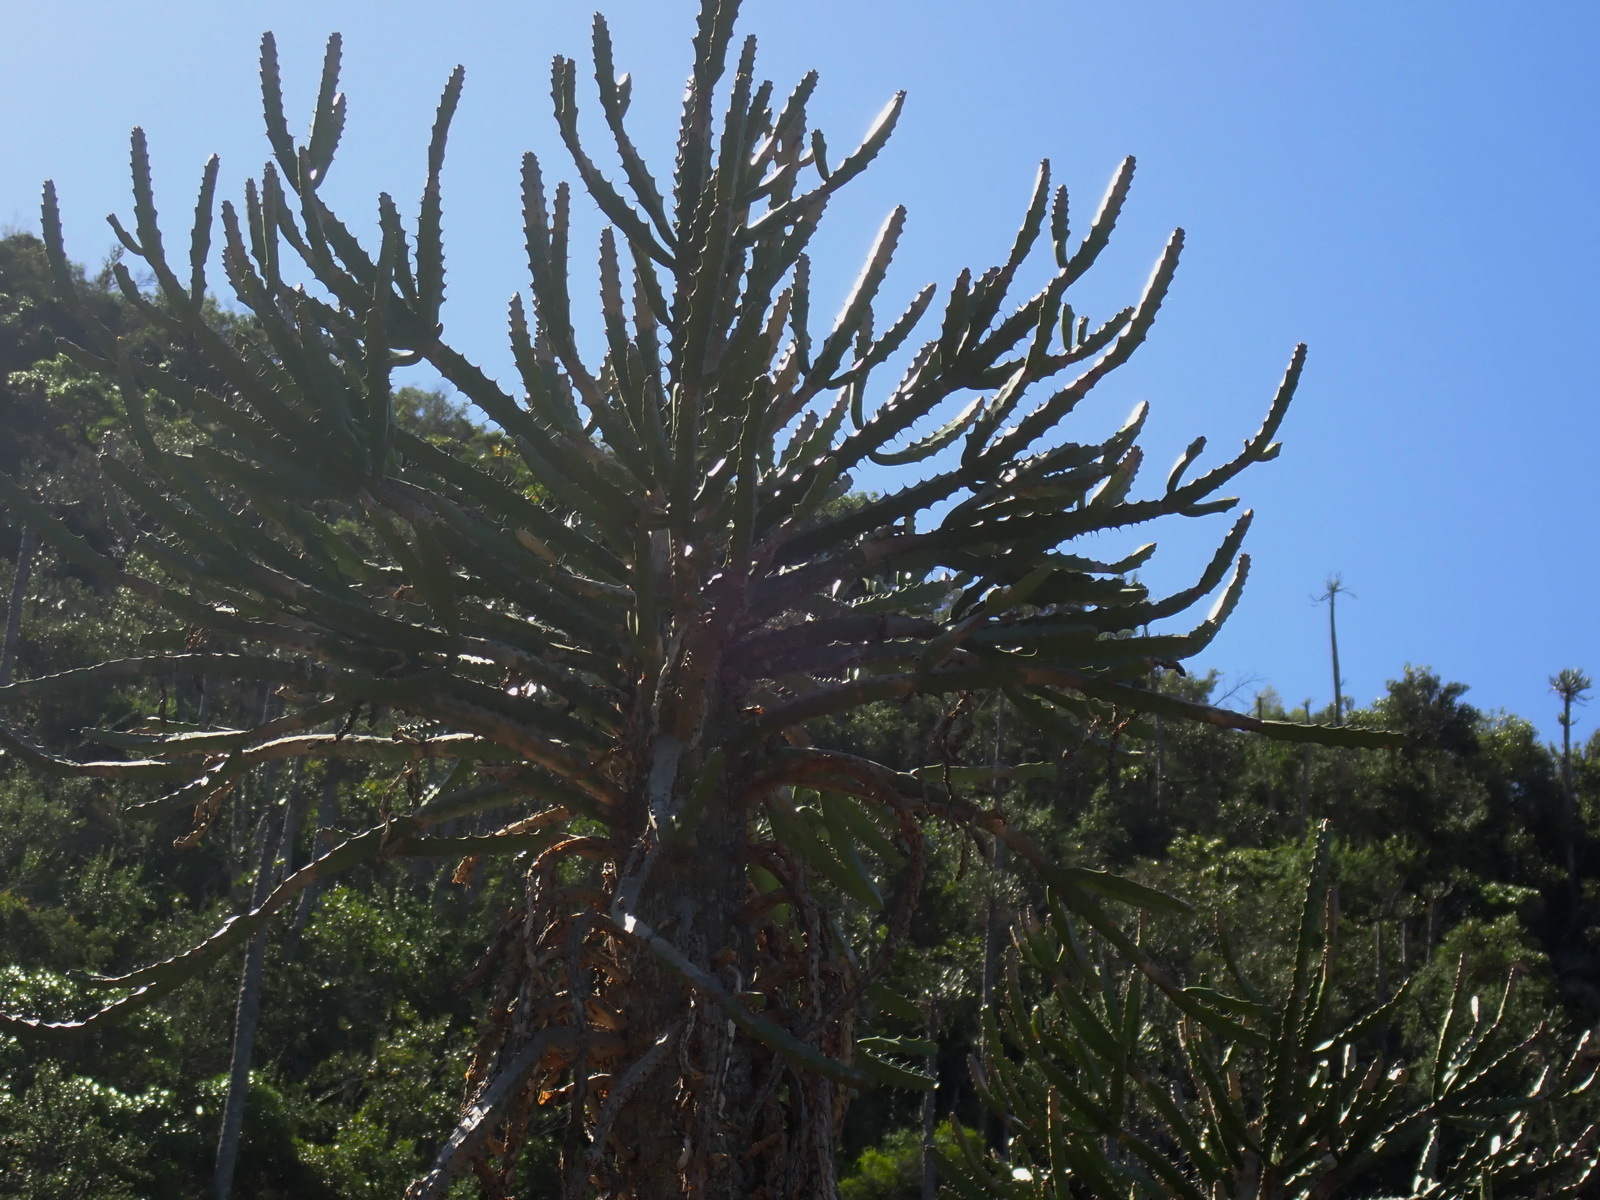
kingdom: Plantae
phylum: Tracheophyta
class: Magnoliopsida
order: Malpighiales
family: Euphorbiaceae
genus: Euphorbia
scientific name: Euphorbia grandidens
